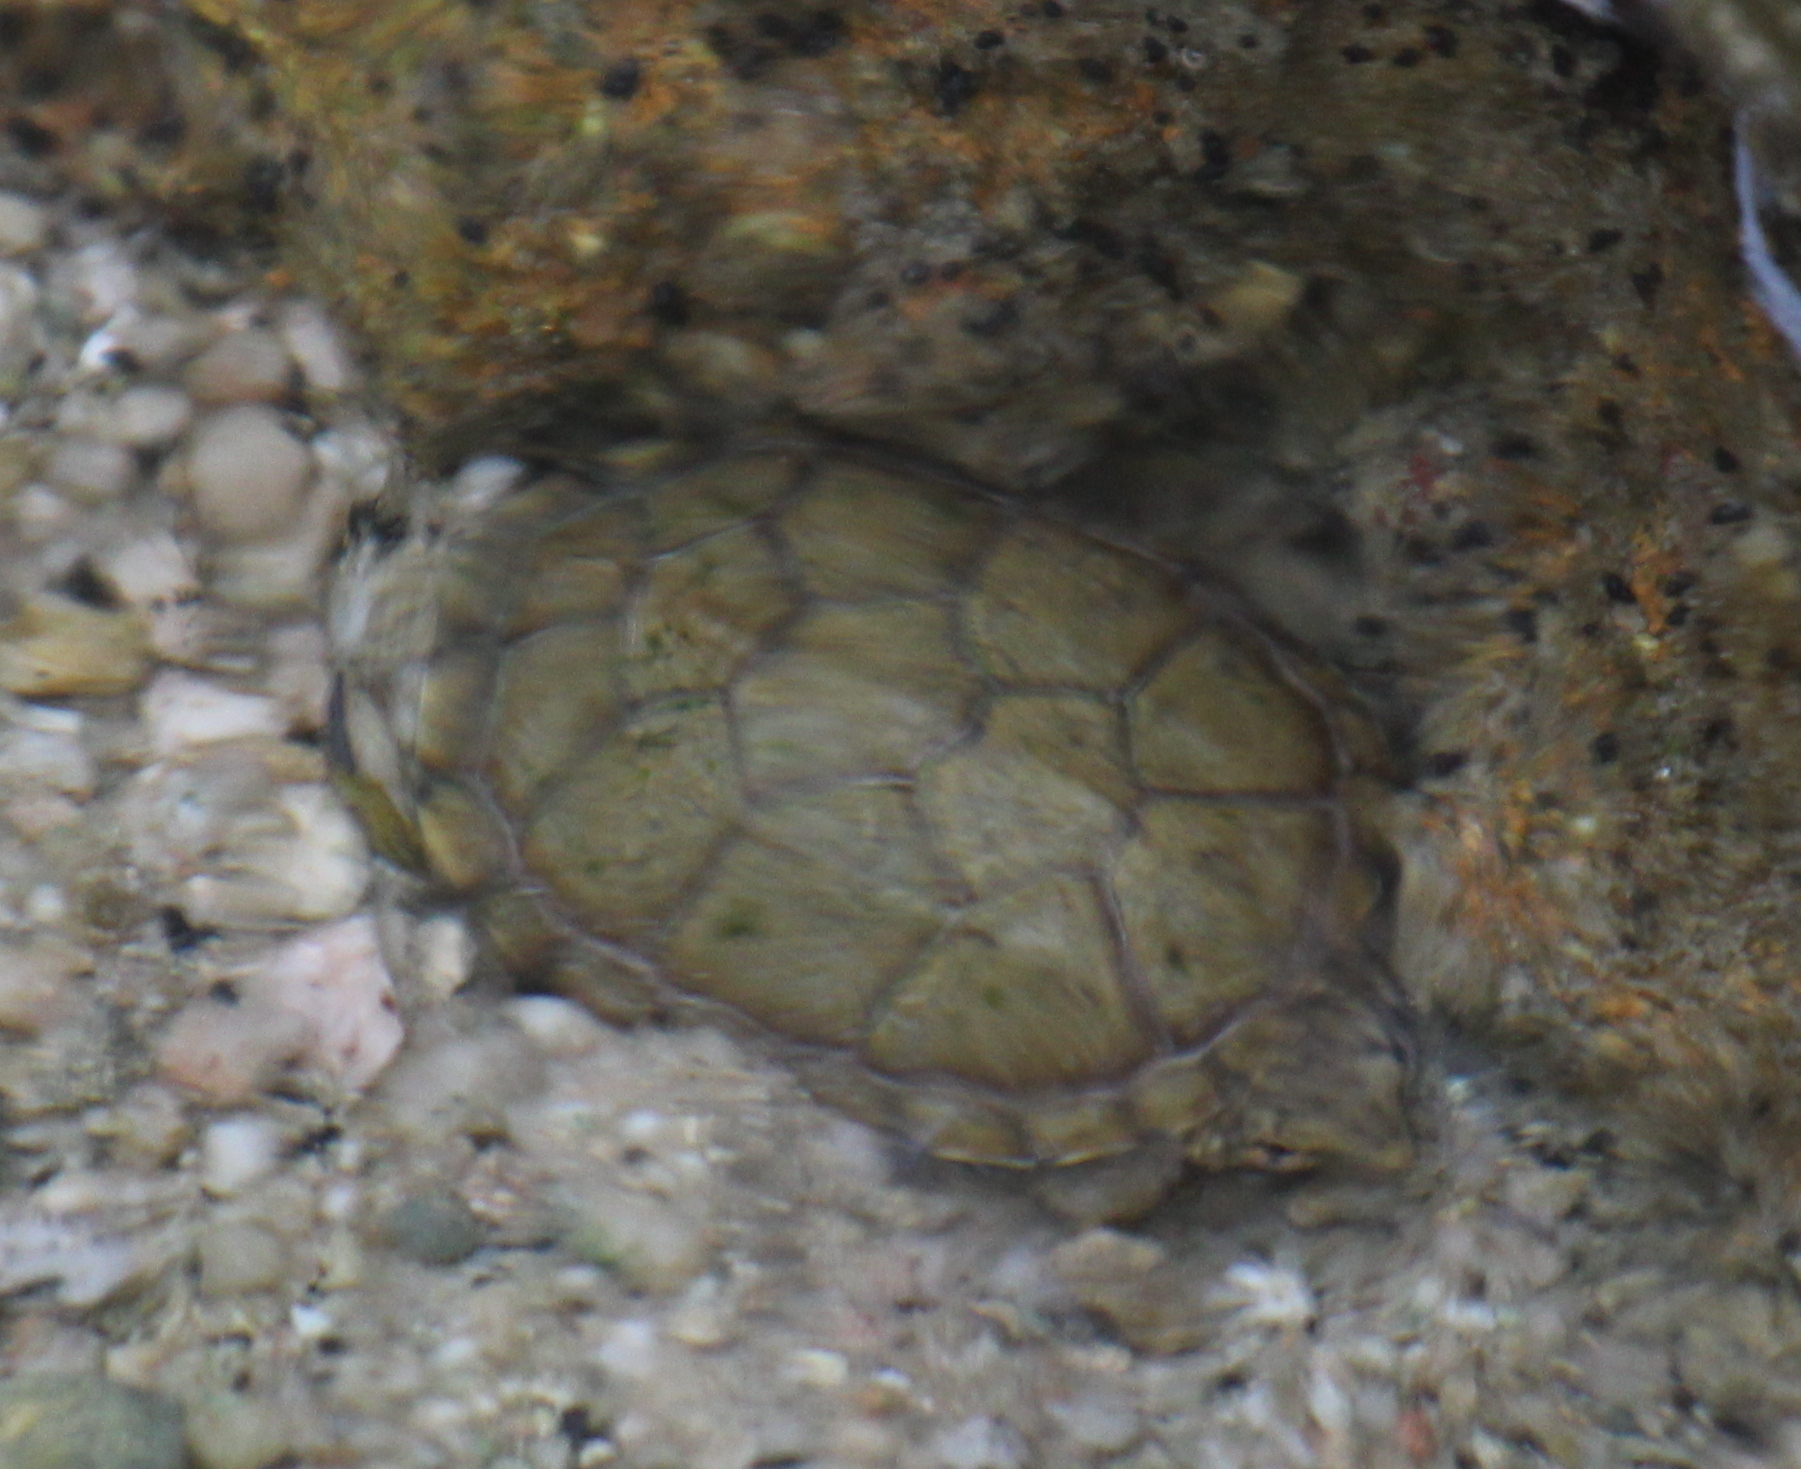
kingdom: Animalia
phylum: Chordata
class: Testudines
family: Kinosternidae
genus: Kinosternon
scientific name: Kinosternon sonoriense
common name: Sonora mud turtle
